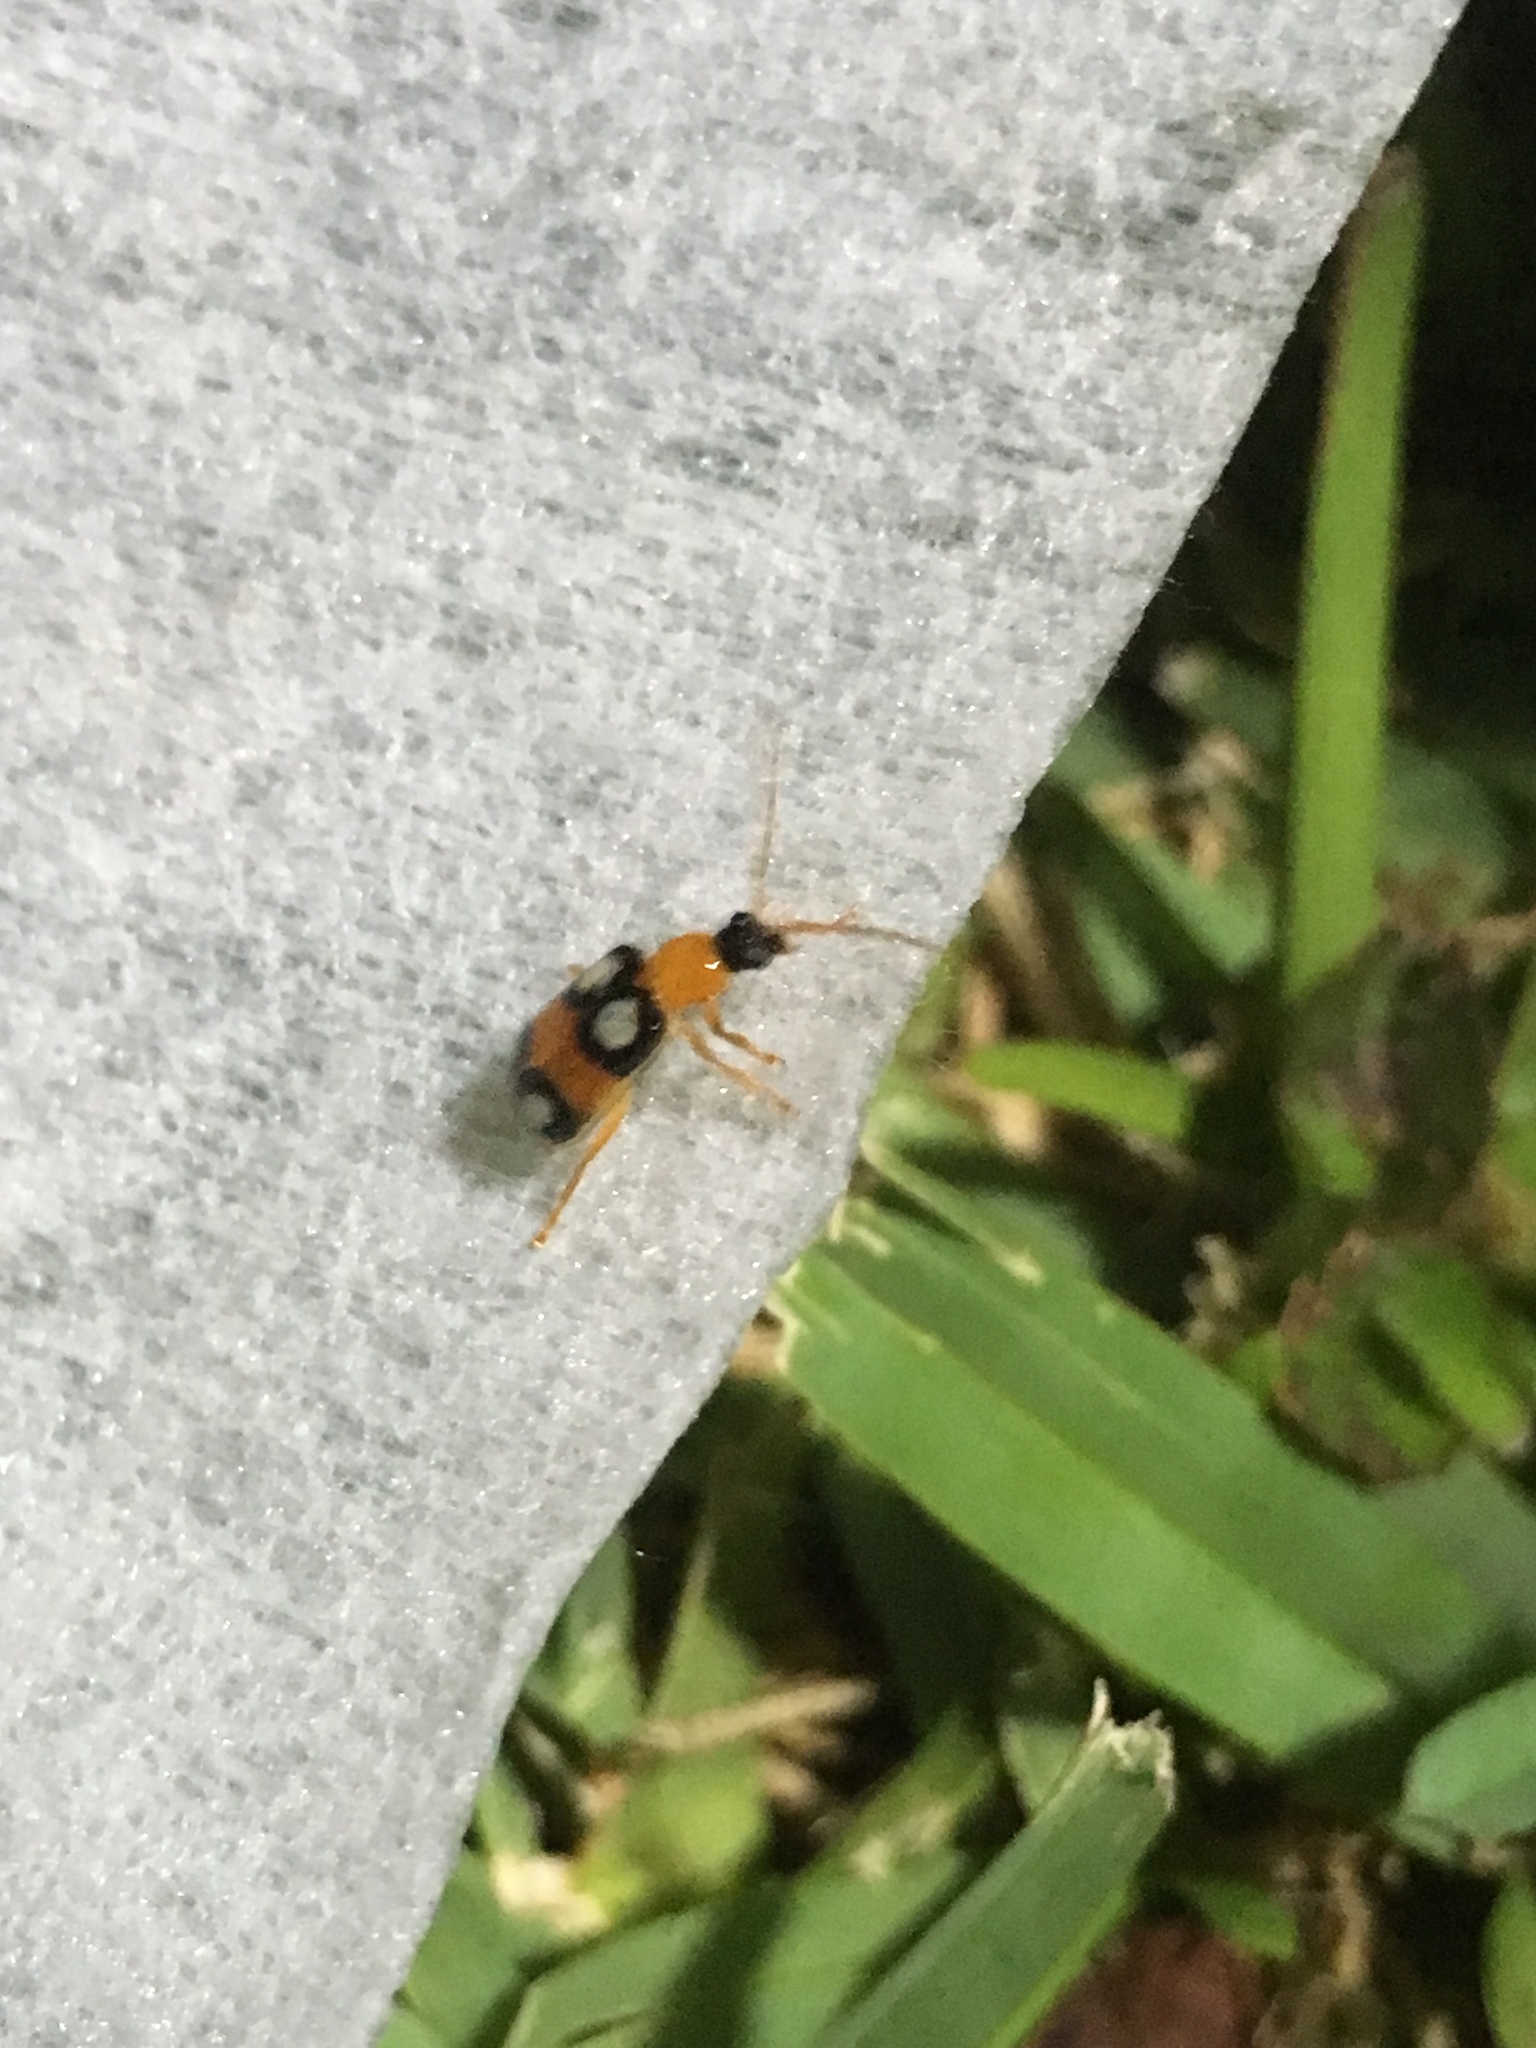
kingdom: Animalia
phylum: Arthropoda
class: Insecta
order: Coleoptera
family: Chrysomelidae
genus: Diabrotica
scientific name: Diabrotica bioculata
